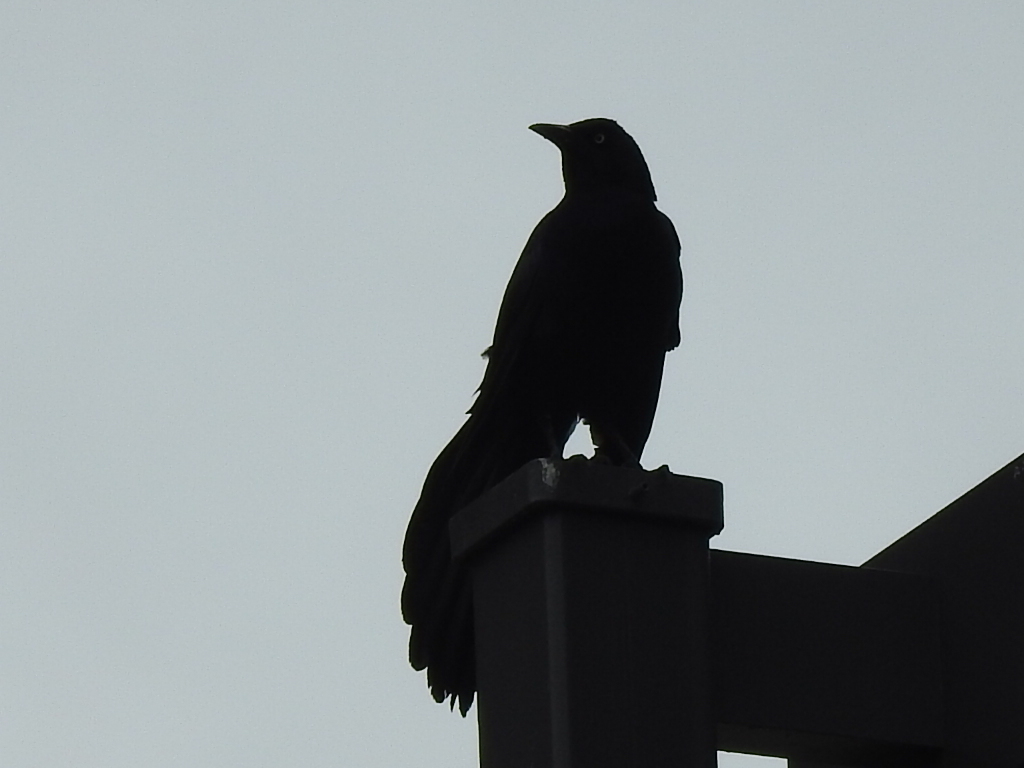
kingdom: Animalia
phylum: Chordata
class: Aves
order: Passeriformes
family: Icteridae
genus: Quiscalus
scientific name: Quiscalus mexicanus
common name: Great-tailed grackle
